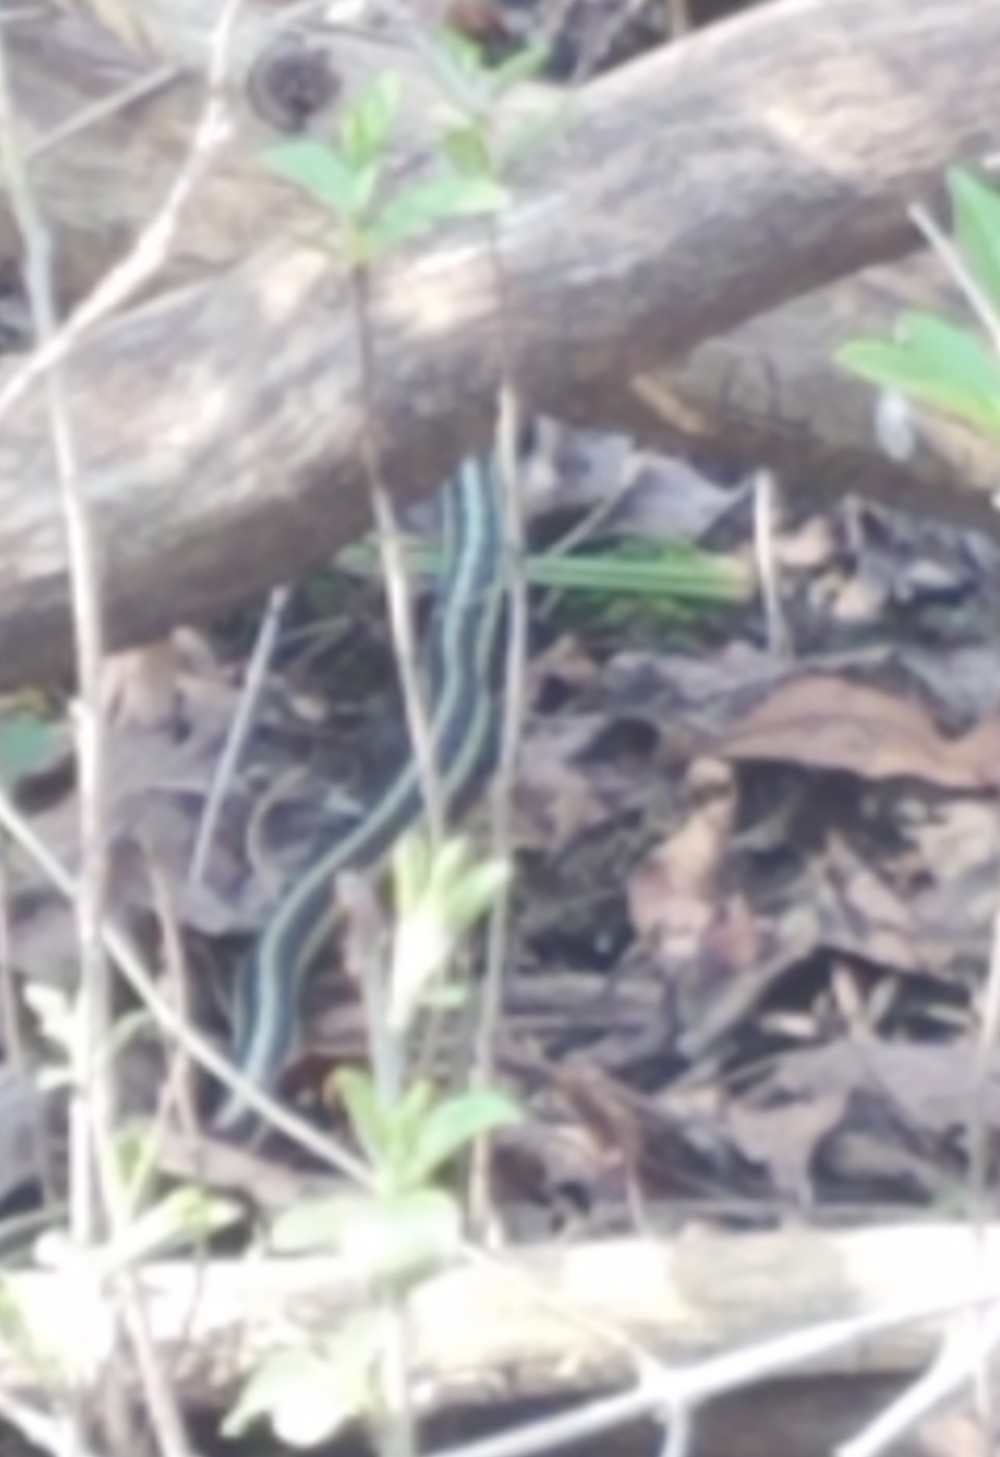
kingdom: Animalia
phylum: Chordata
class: Squamata
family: Colubridae
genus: Thamnophis
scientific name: Thamnophis sirtalis
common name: Common garter snake
